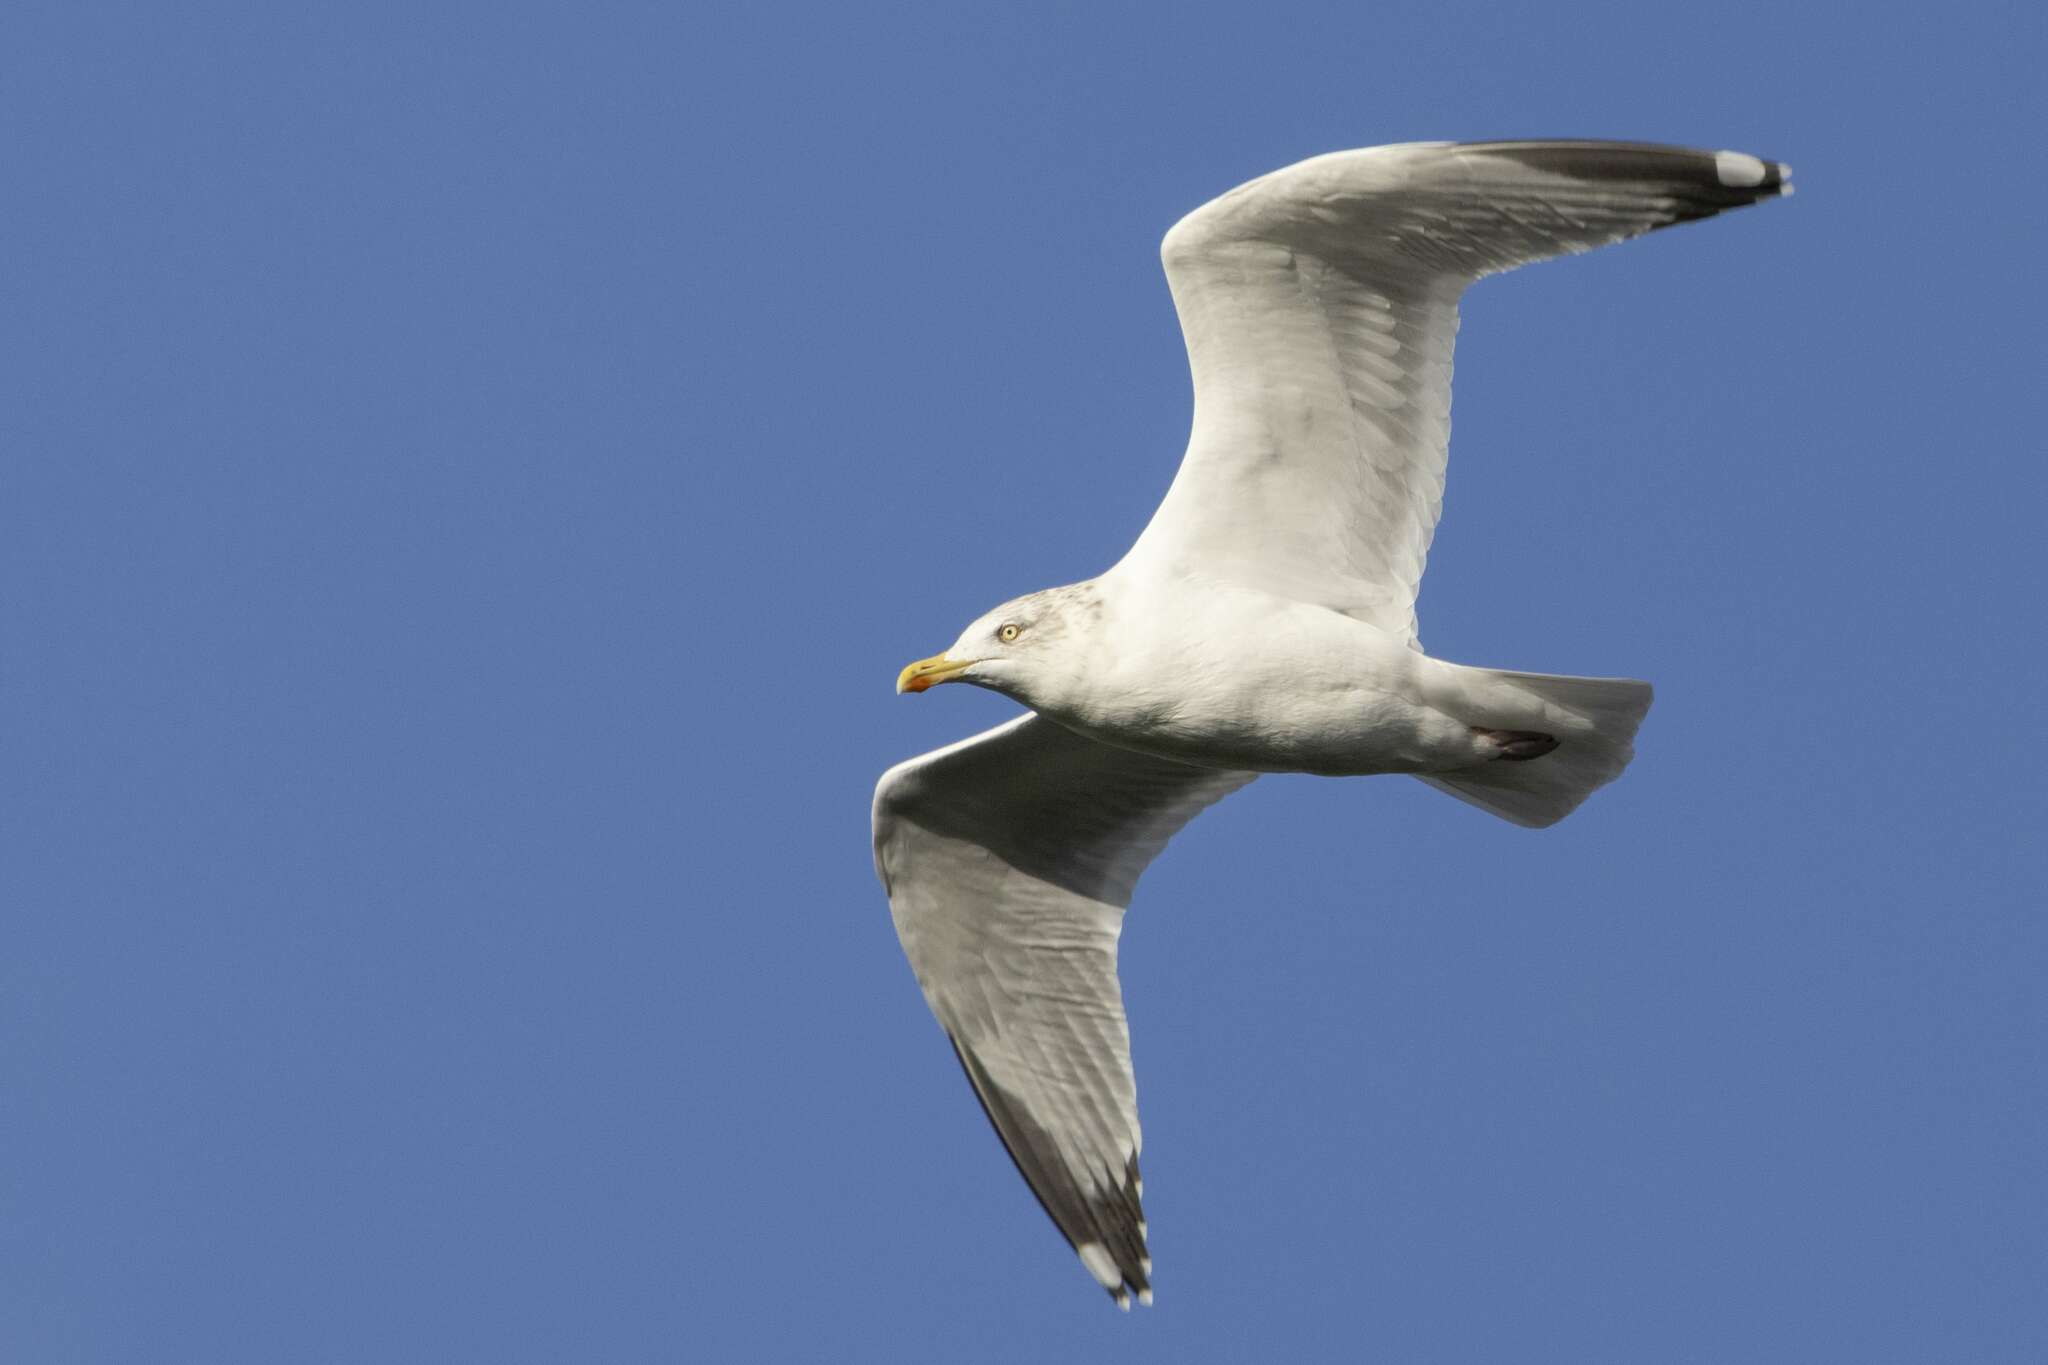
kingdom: Animalia
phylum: Chordata
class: Aves
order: Charadriiformes
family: Laridae
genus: Larus
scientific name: Larus argentatus
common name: Herring gull
